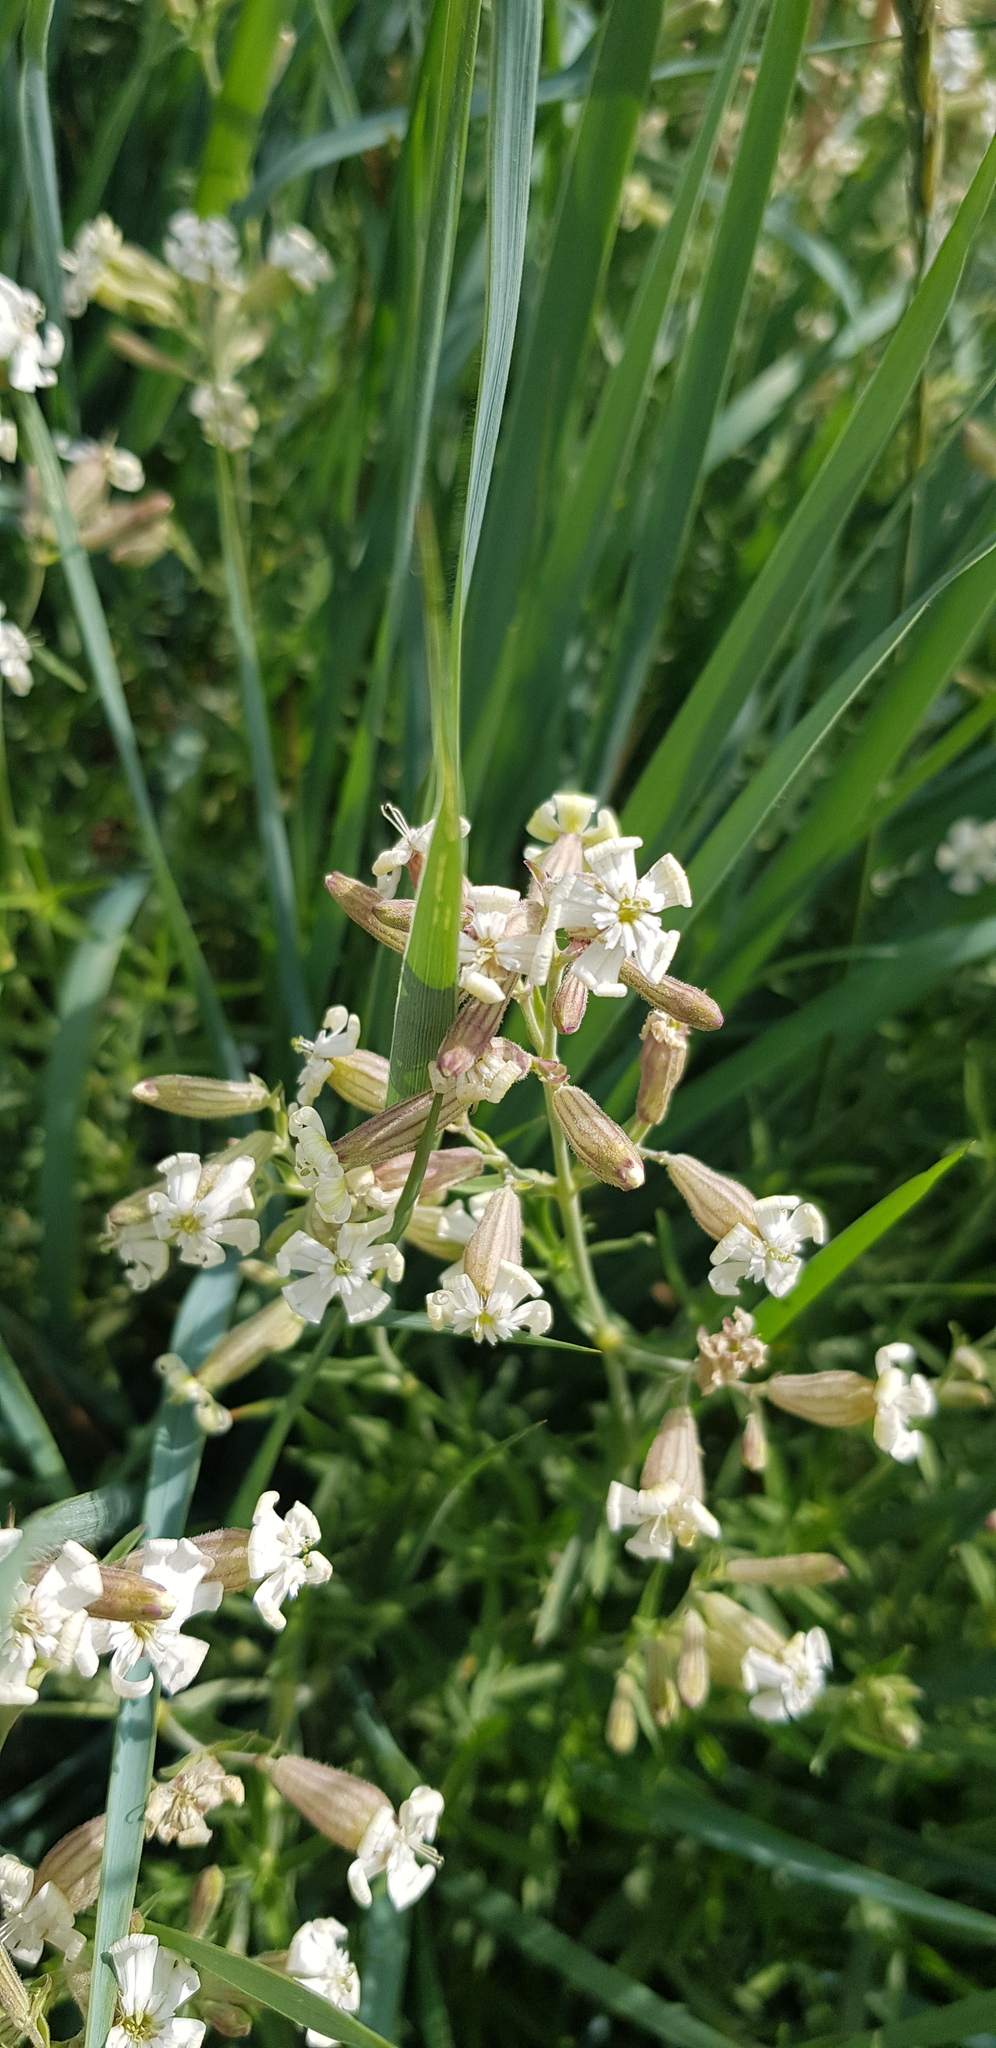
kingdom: Plantae
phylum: Tracheophyta
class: Magnoliopsida
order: Caryophyllales
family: Caryophyllaceae
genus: Silene
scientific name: Silene repens
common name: Pink campion
